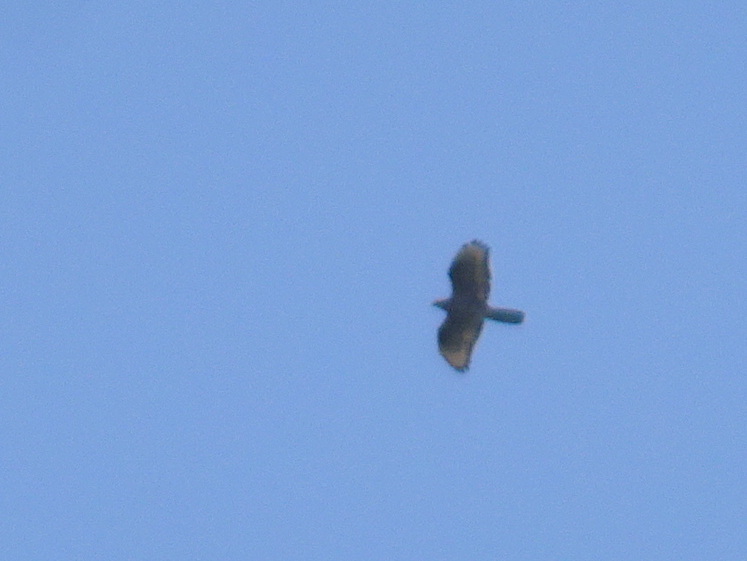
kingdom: Animalia
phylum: Chordata
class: Aves
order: Accipitriformes
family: Accipitridae
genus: Pernis
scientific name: Pernis apivorus
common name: European honey buzzard
